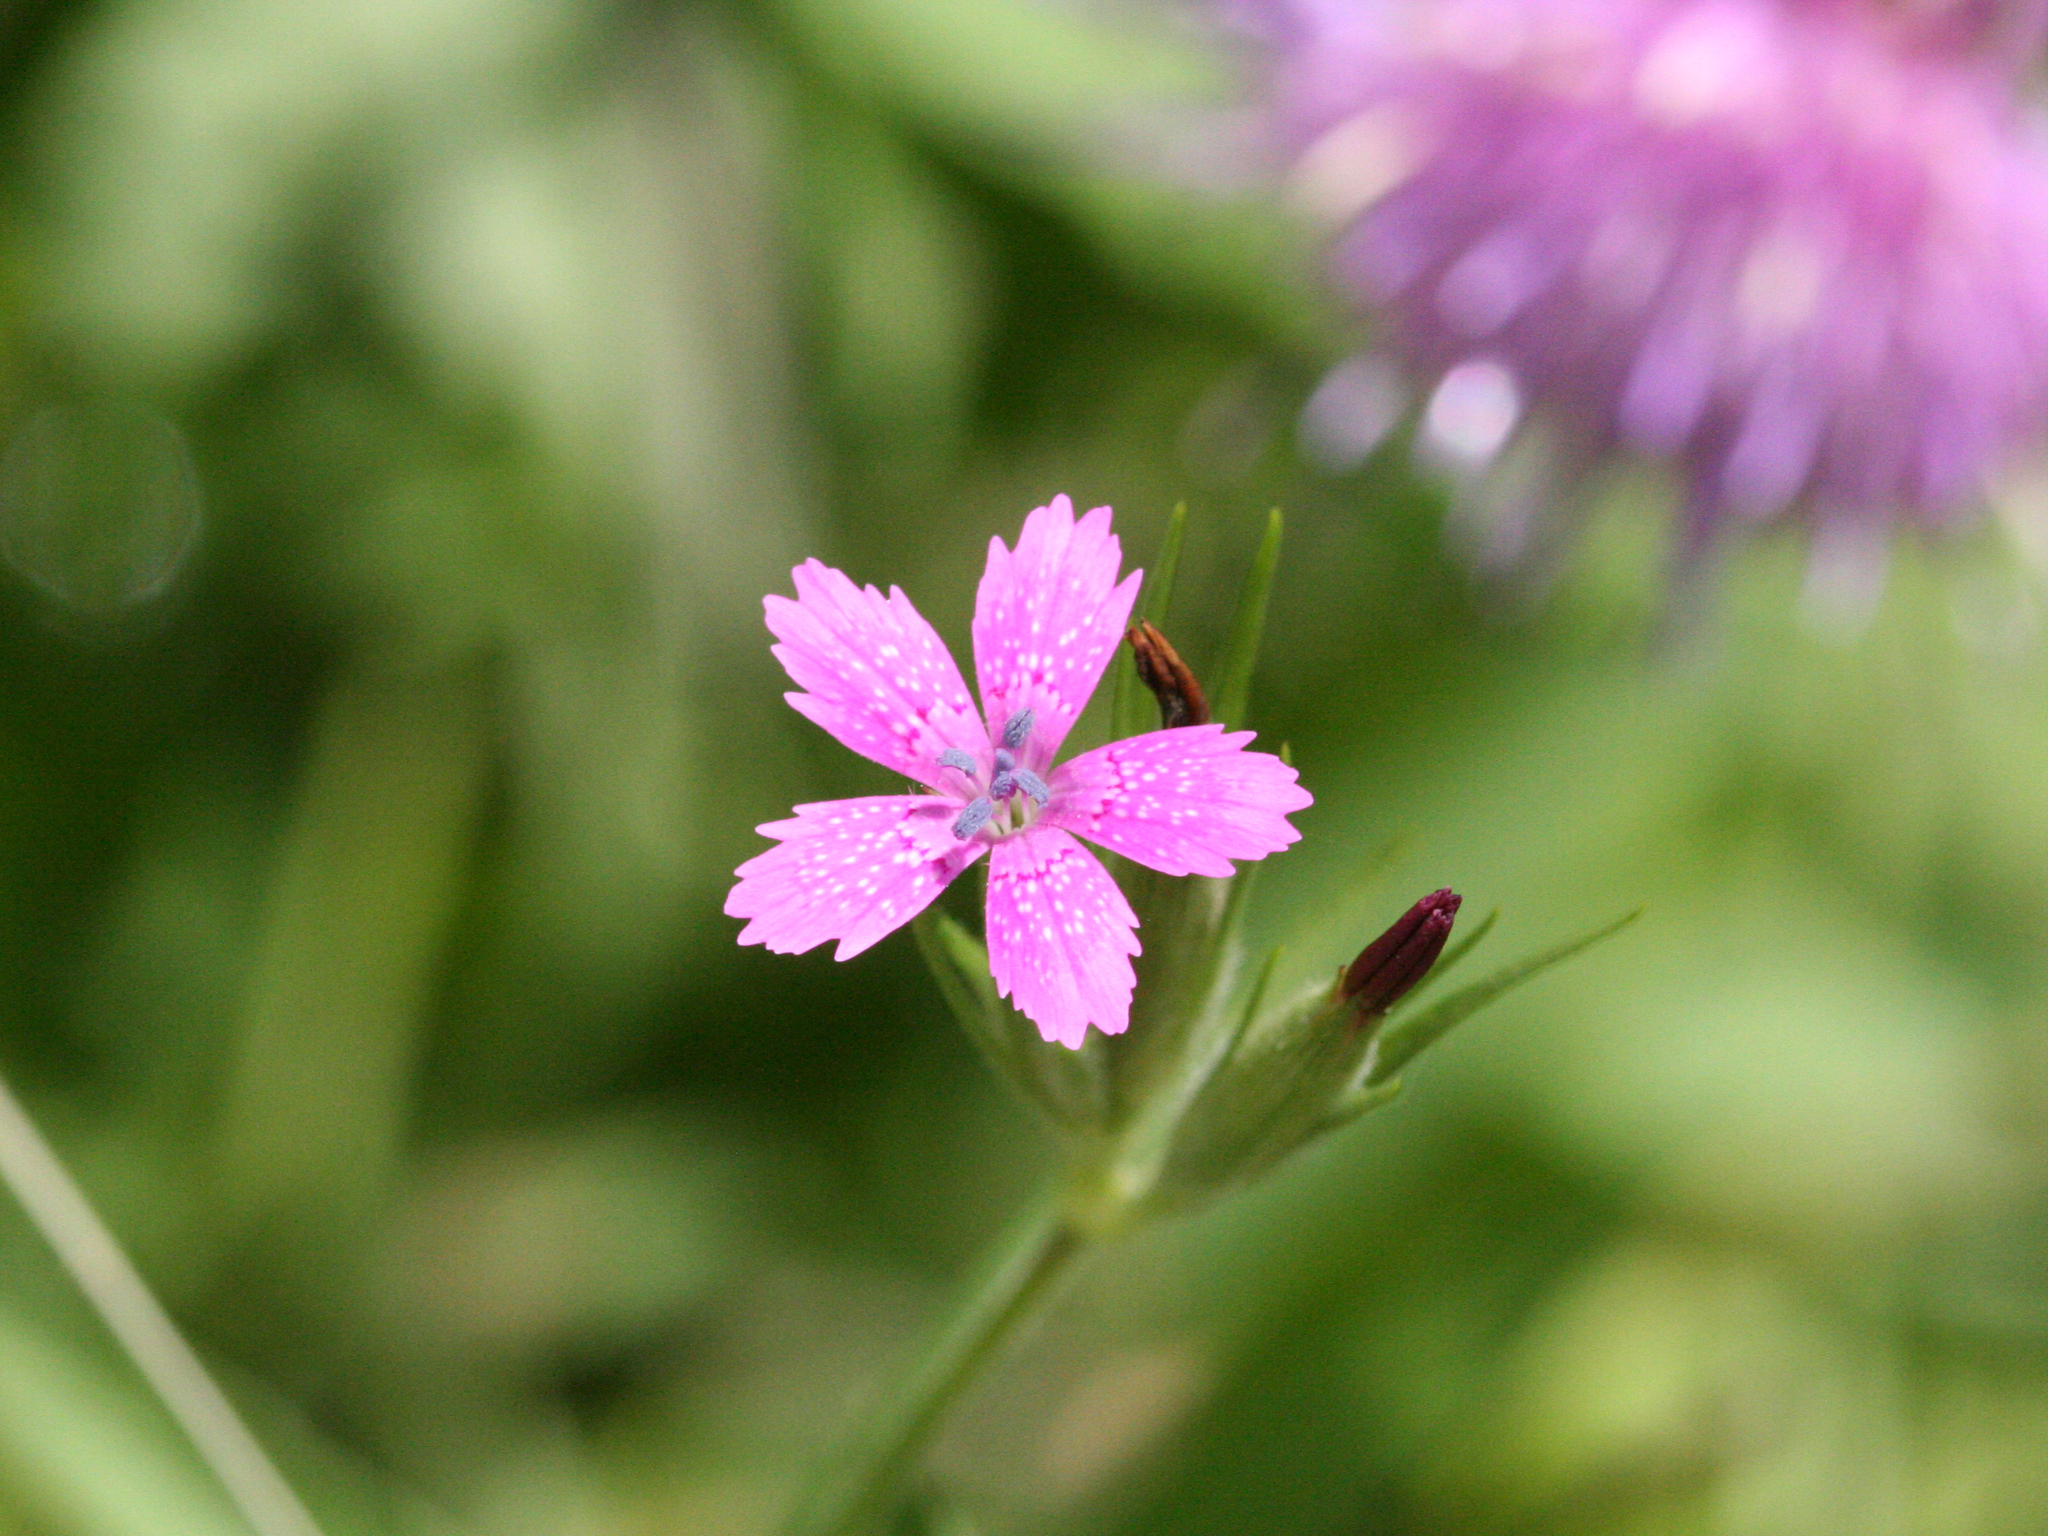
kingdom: Plantae
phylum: Tracheophyta
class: Magnoliopsida
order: Caryophyllales
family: Caryophyllaceae
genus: Dianthus
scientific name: Dianthus armeria
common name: Deptford pink
